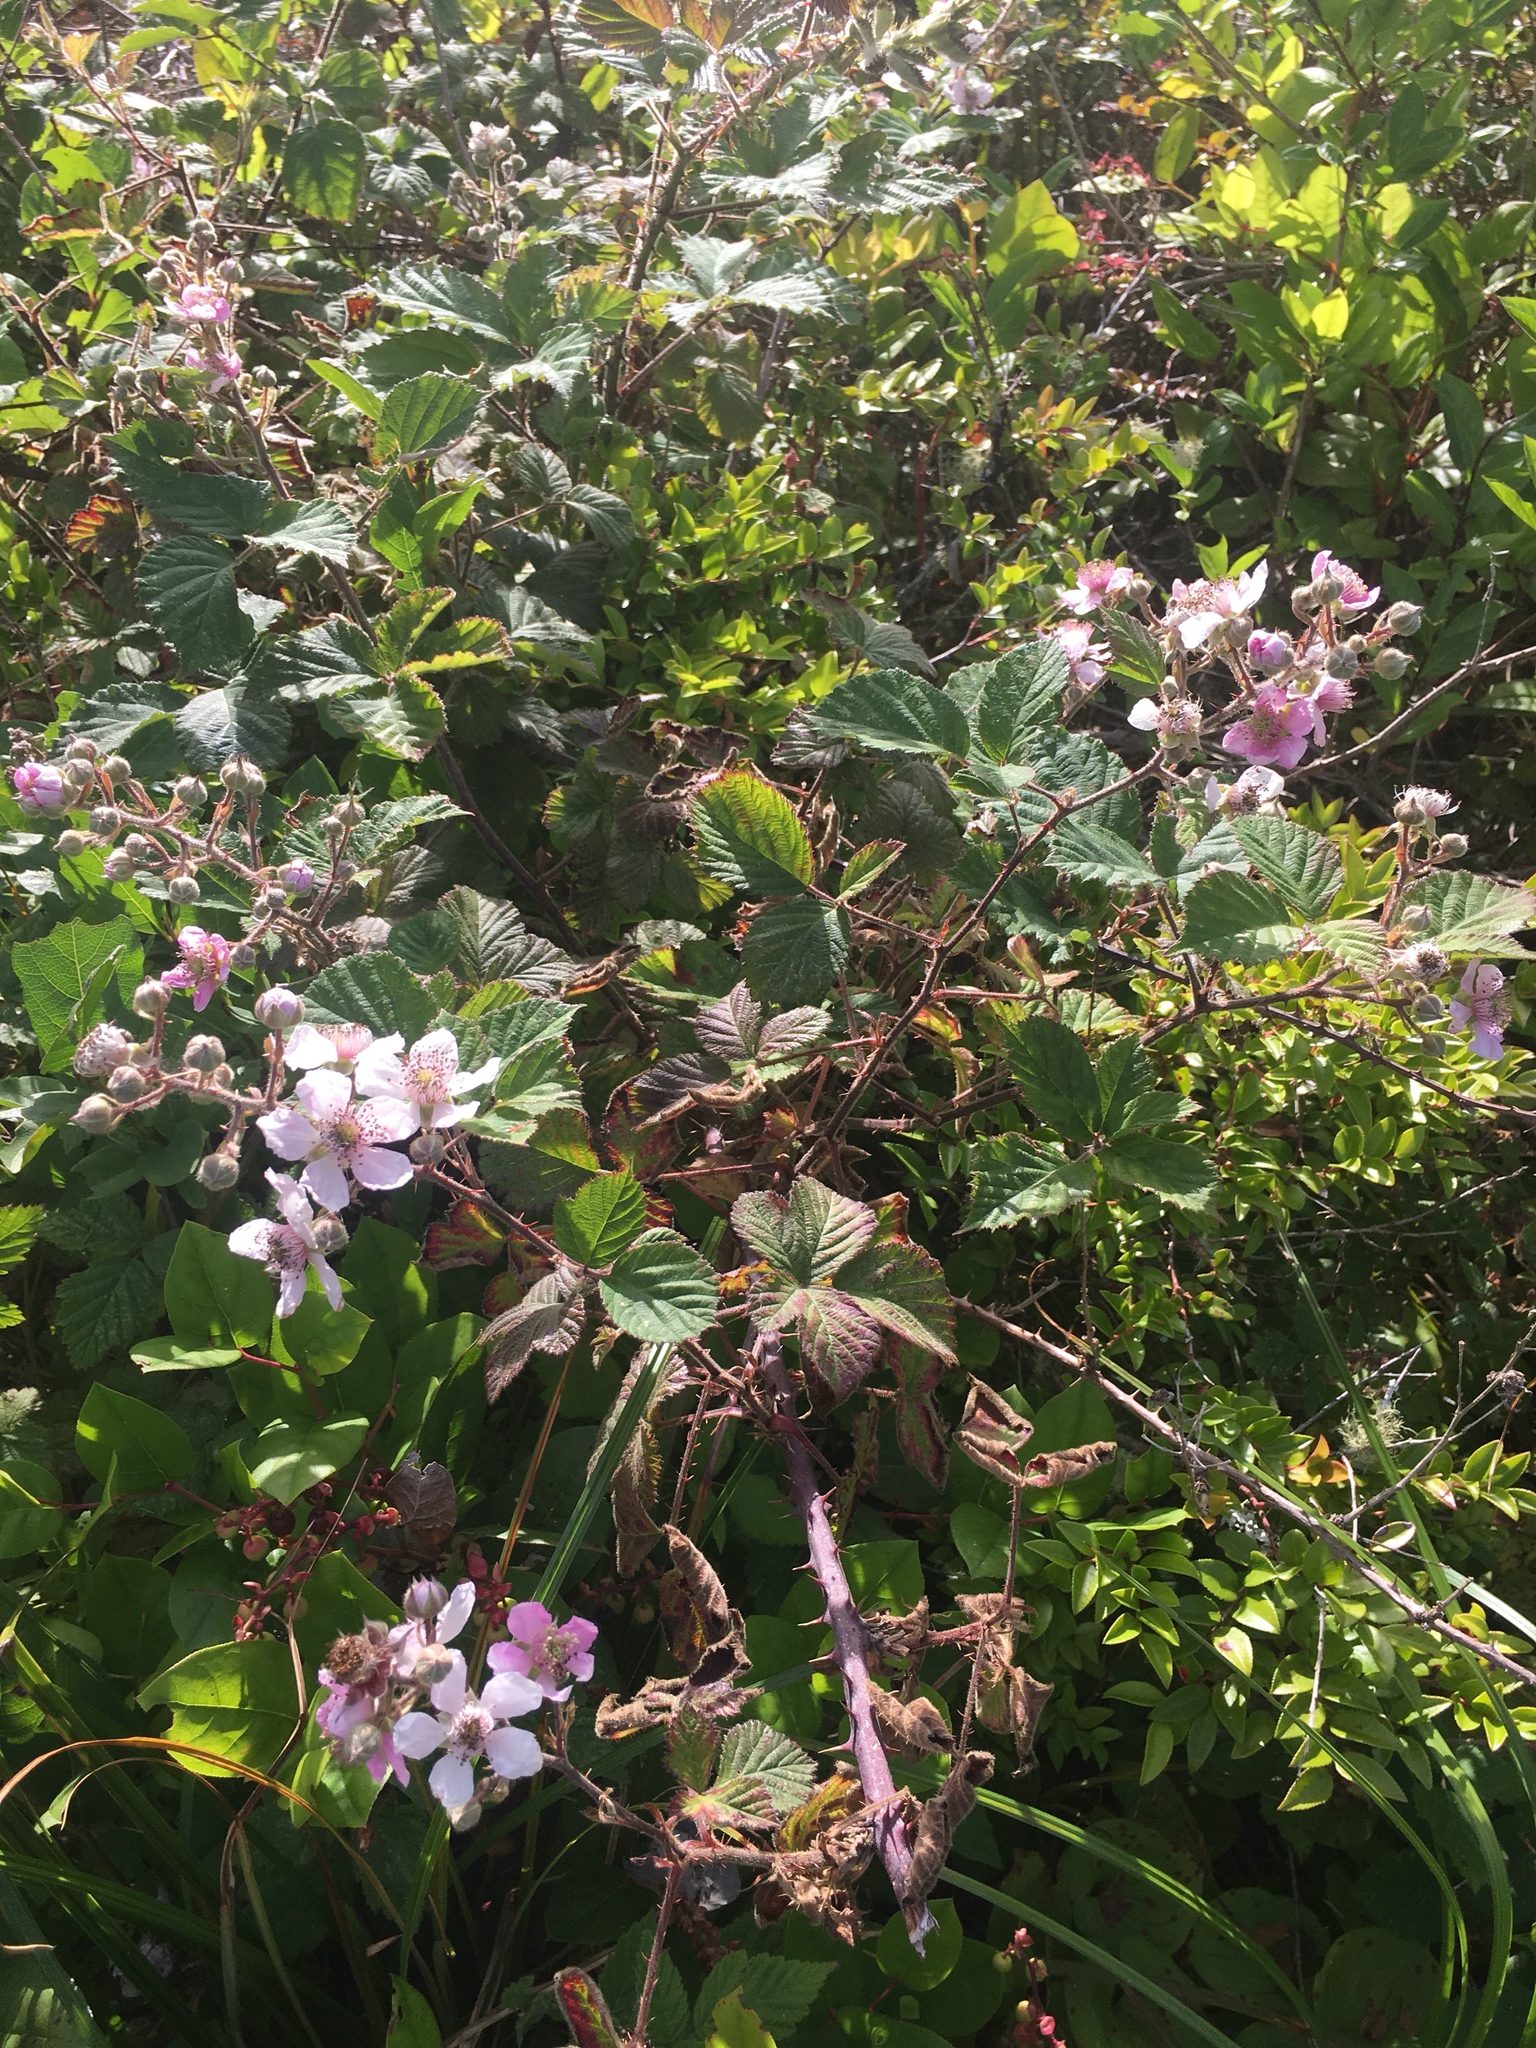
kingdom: Plantae
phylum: Tracheophyta
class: Magnoliopsida
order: Rosales
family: Rosaceae
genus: Rubus
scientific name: Rubus armeniacus
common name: Himalayan blackberry
